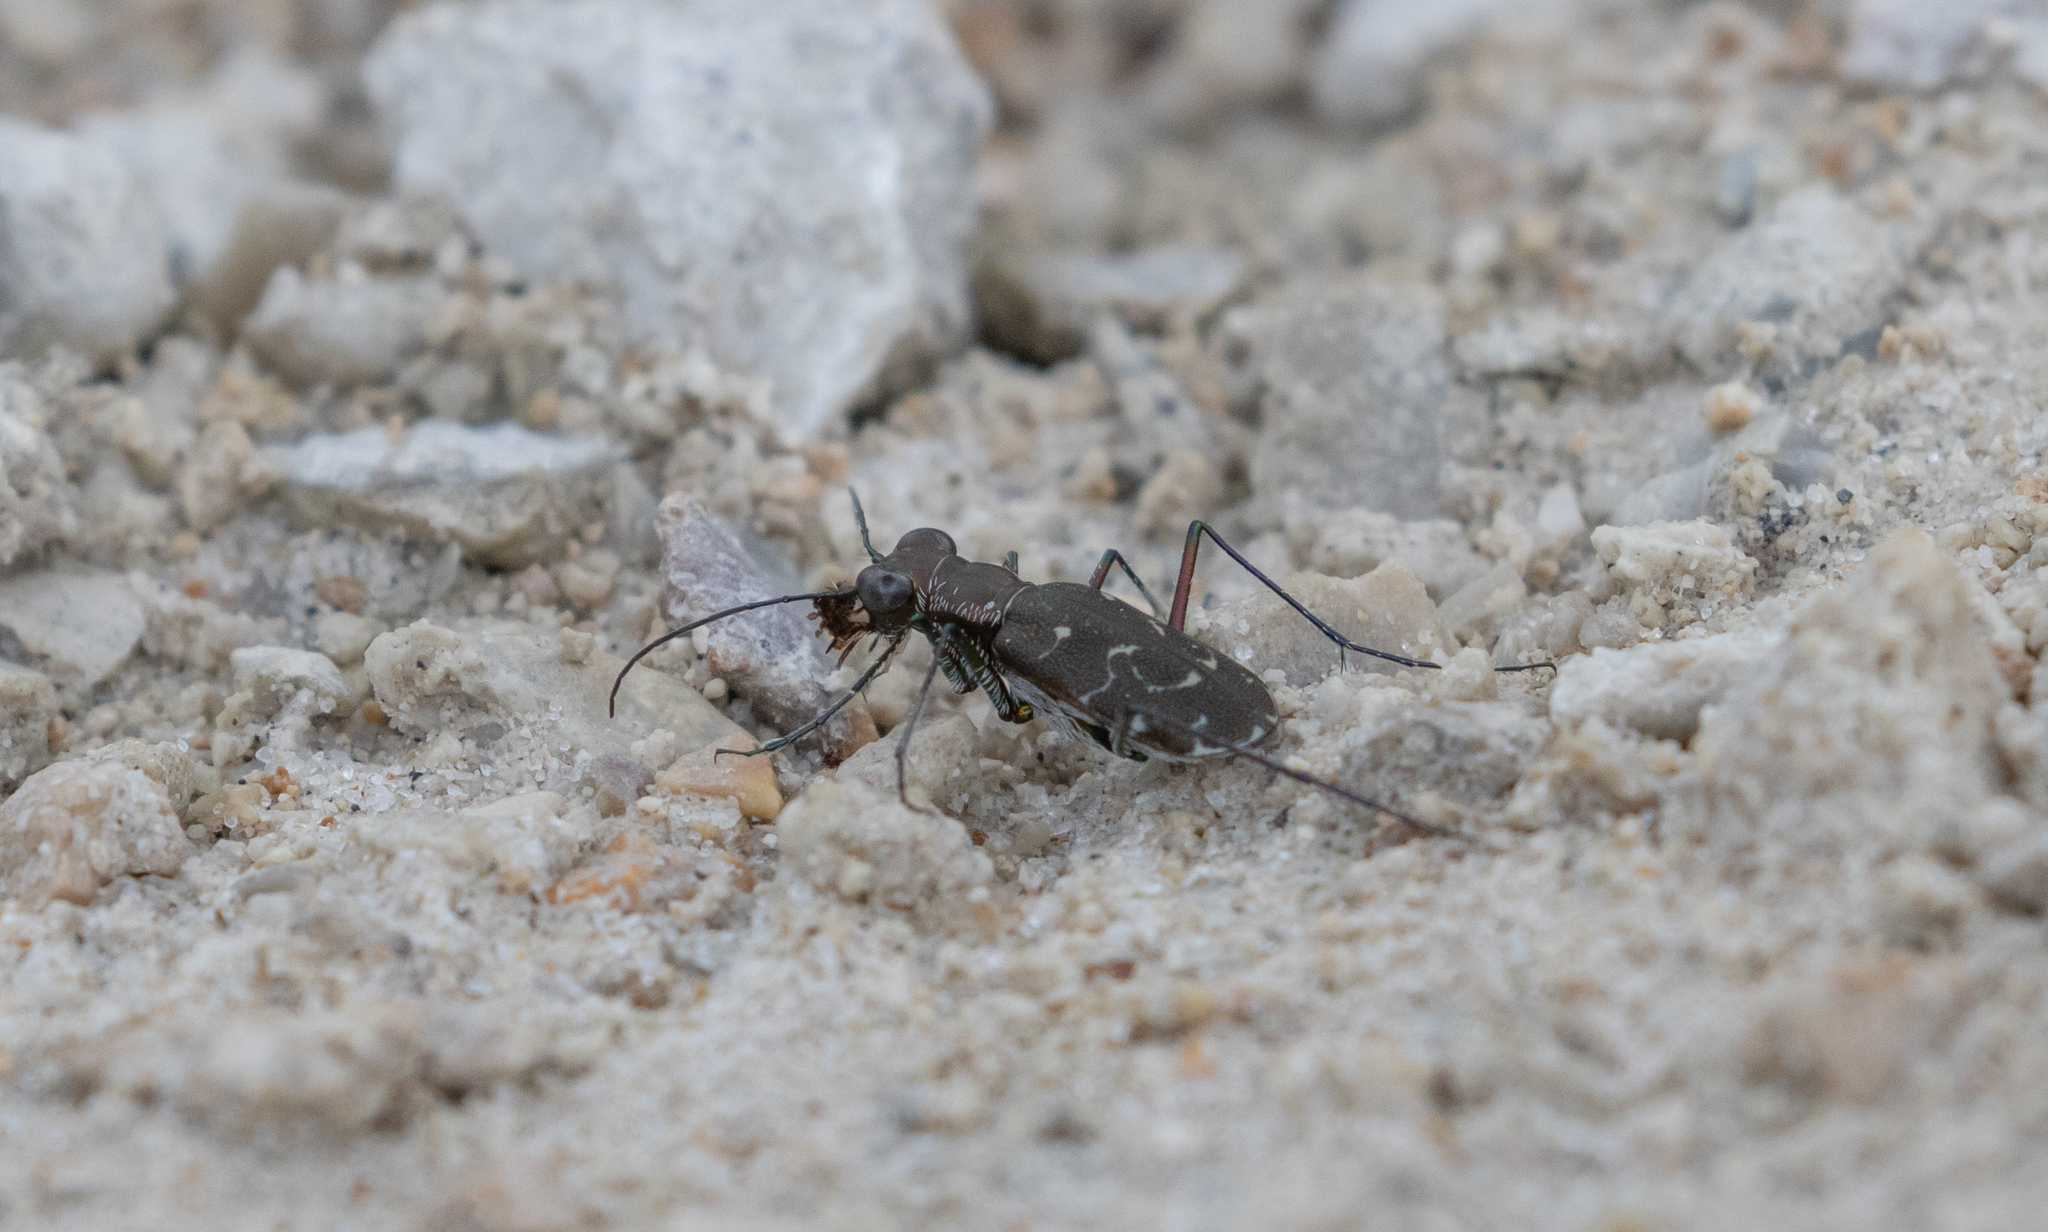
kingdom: Animalia
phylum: Arthropoda
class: Insecta
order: Coleoptera
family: Carabidae
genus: Cicindela
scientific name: Cicindela trifasciata
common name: Mudflat tiger beetle
